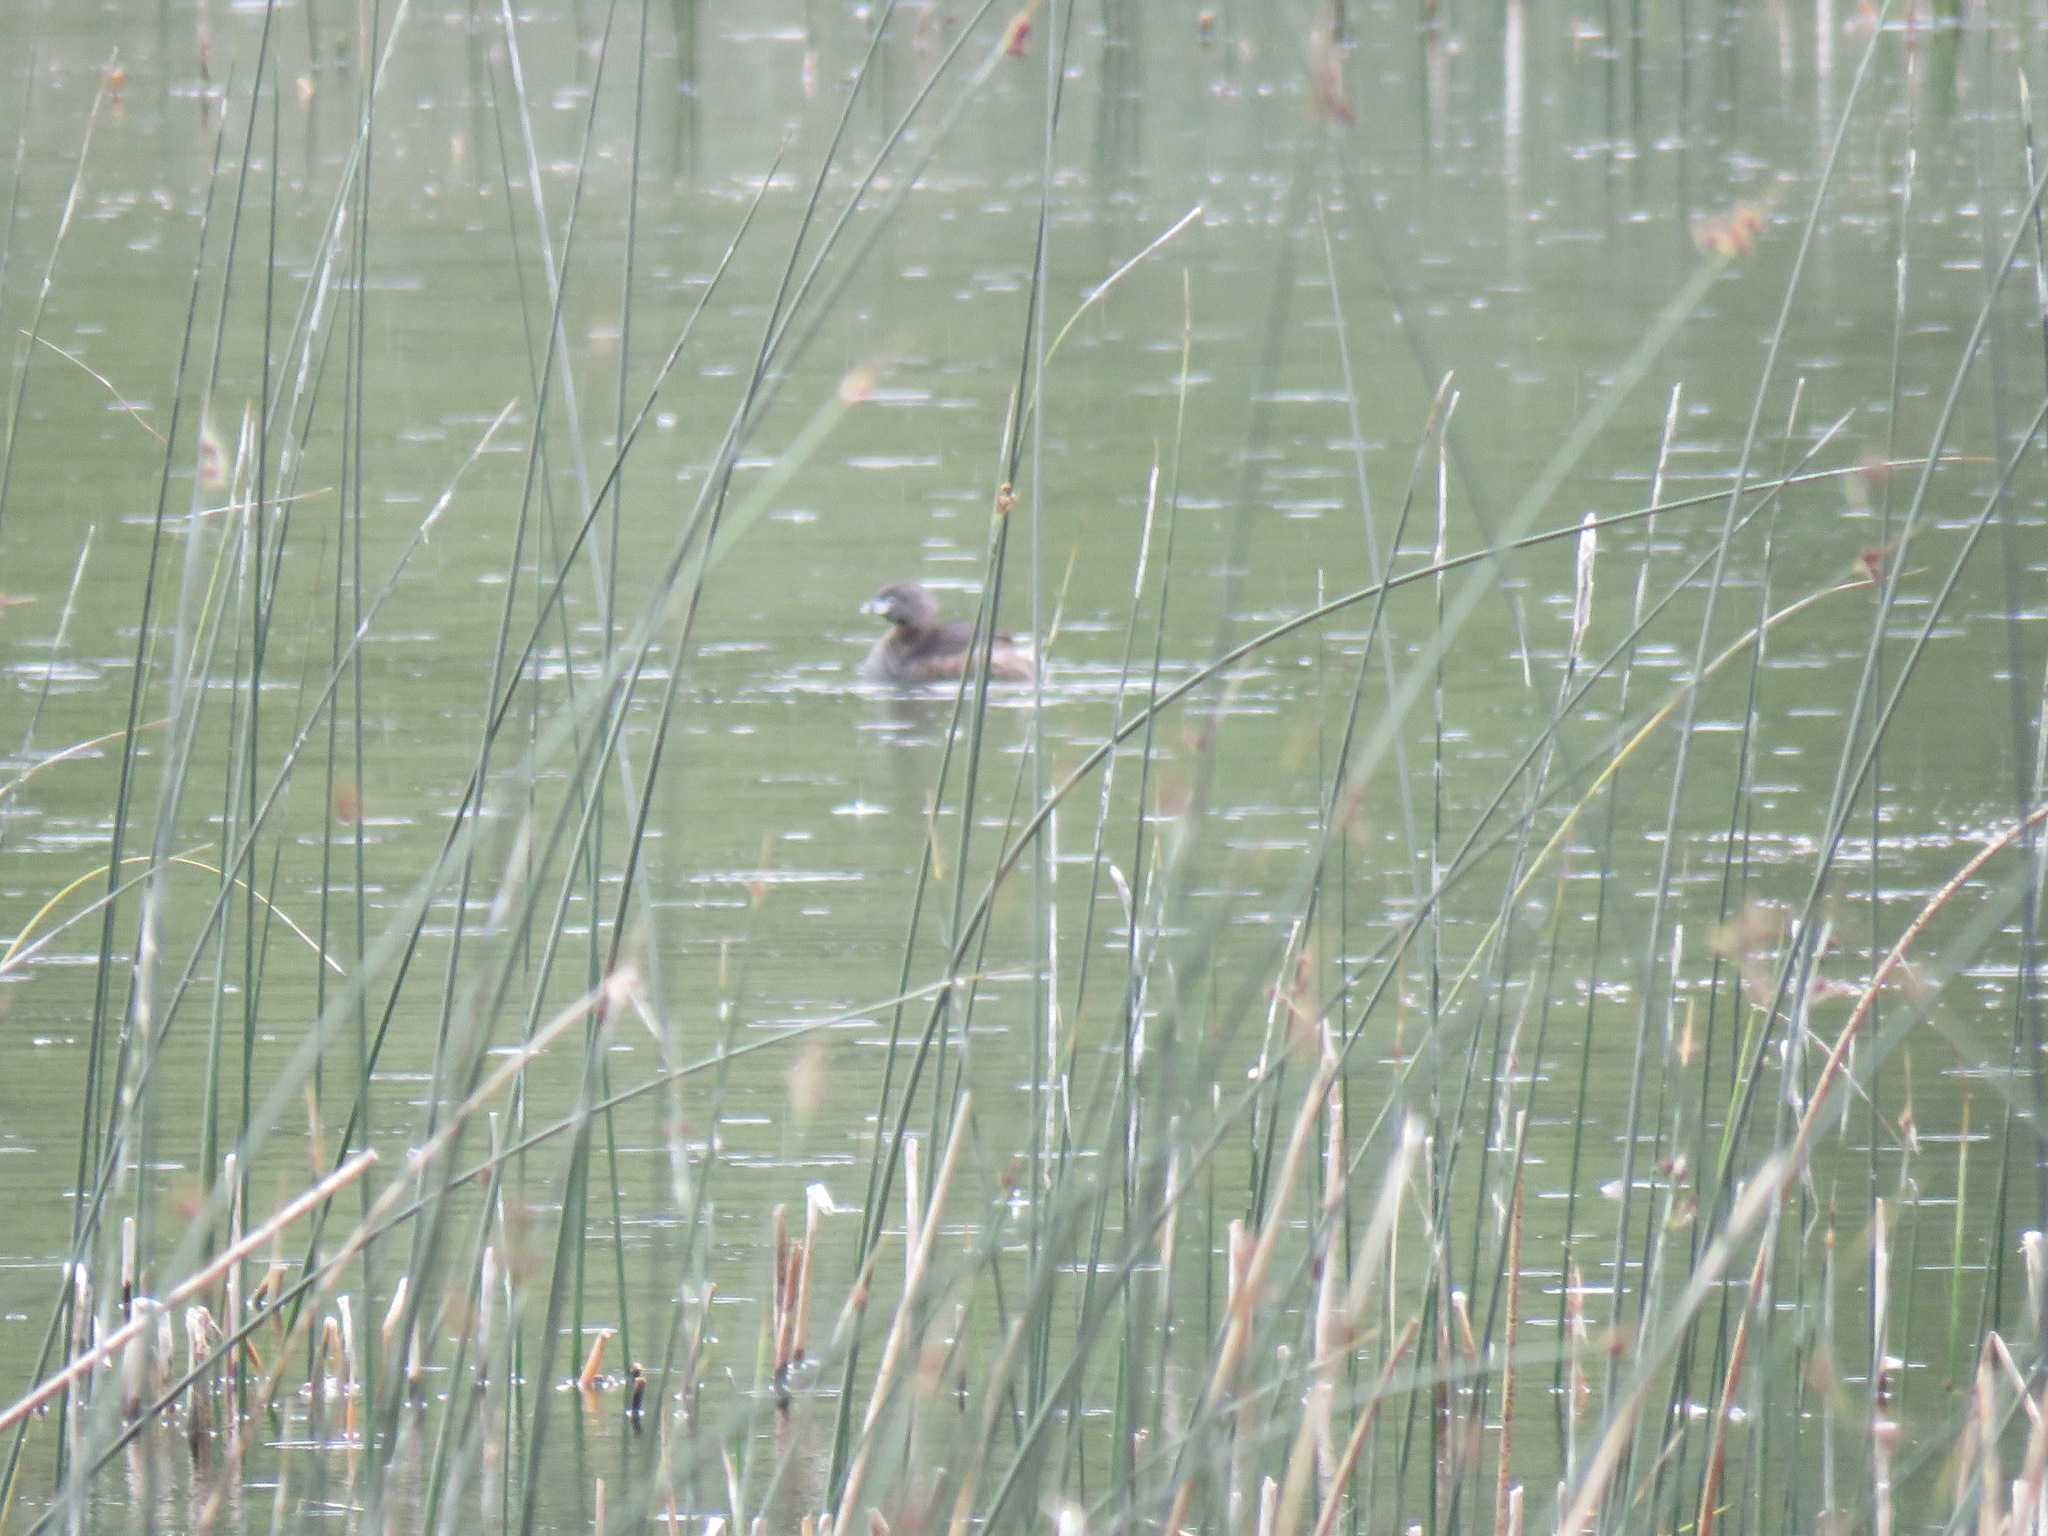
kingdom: Animalia
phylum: Chordata
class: Aves
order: Podicipediformes
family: Podicipedidae
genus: Podilymbus
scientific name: Podilymbus podiceps
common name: Pied-billed grebe
